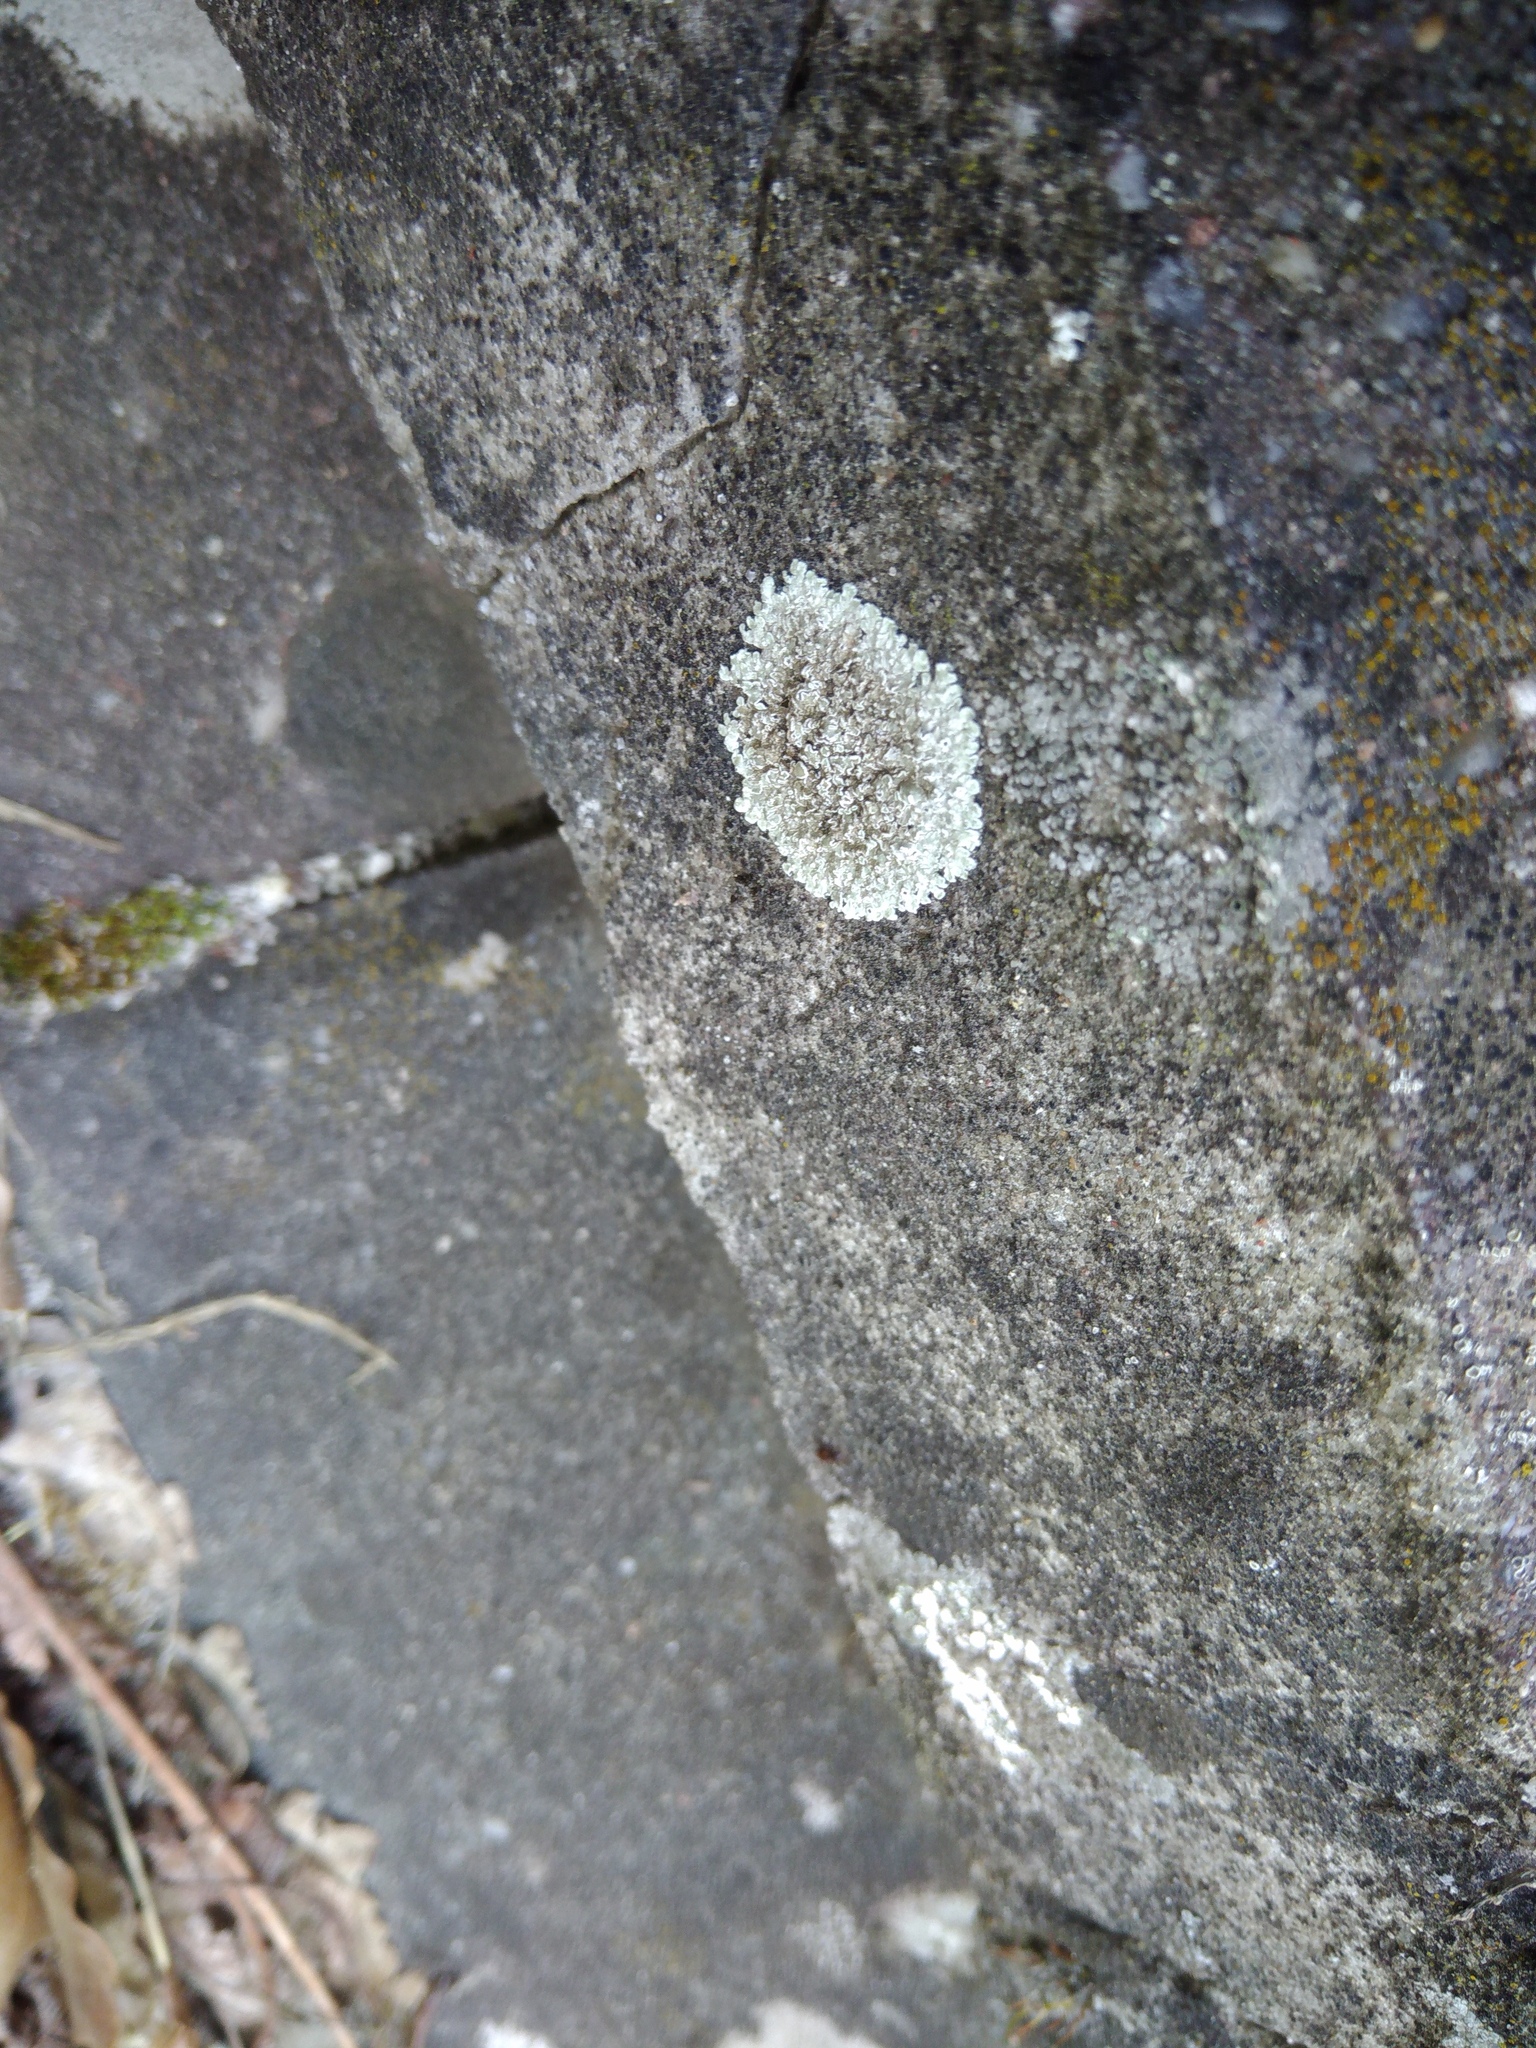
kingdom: Fungi
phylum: Ascomycota
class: Lecanoromycetes
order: Lecanorales
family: Lecanoraceae
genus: Protoparmeliopsis
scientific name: Protoparmeliopsis muralis
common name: Stonewall rim lichen
